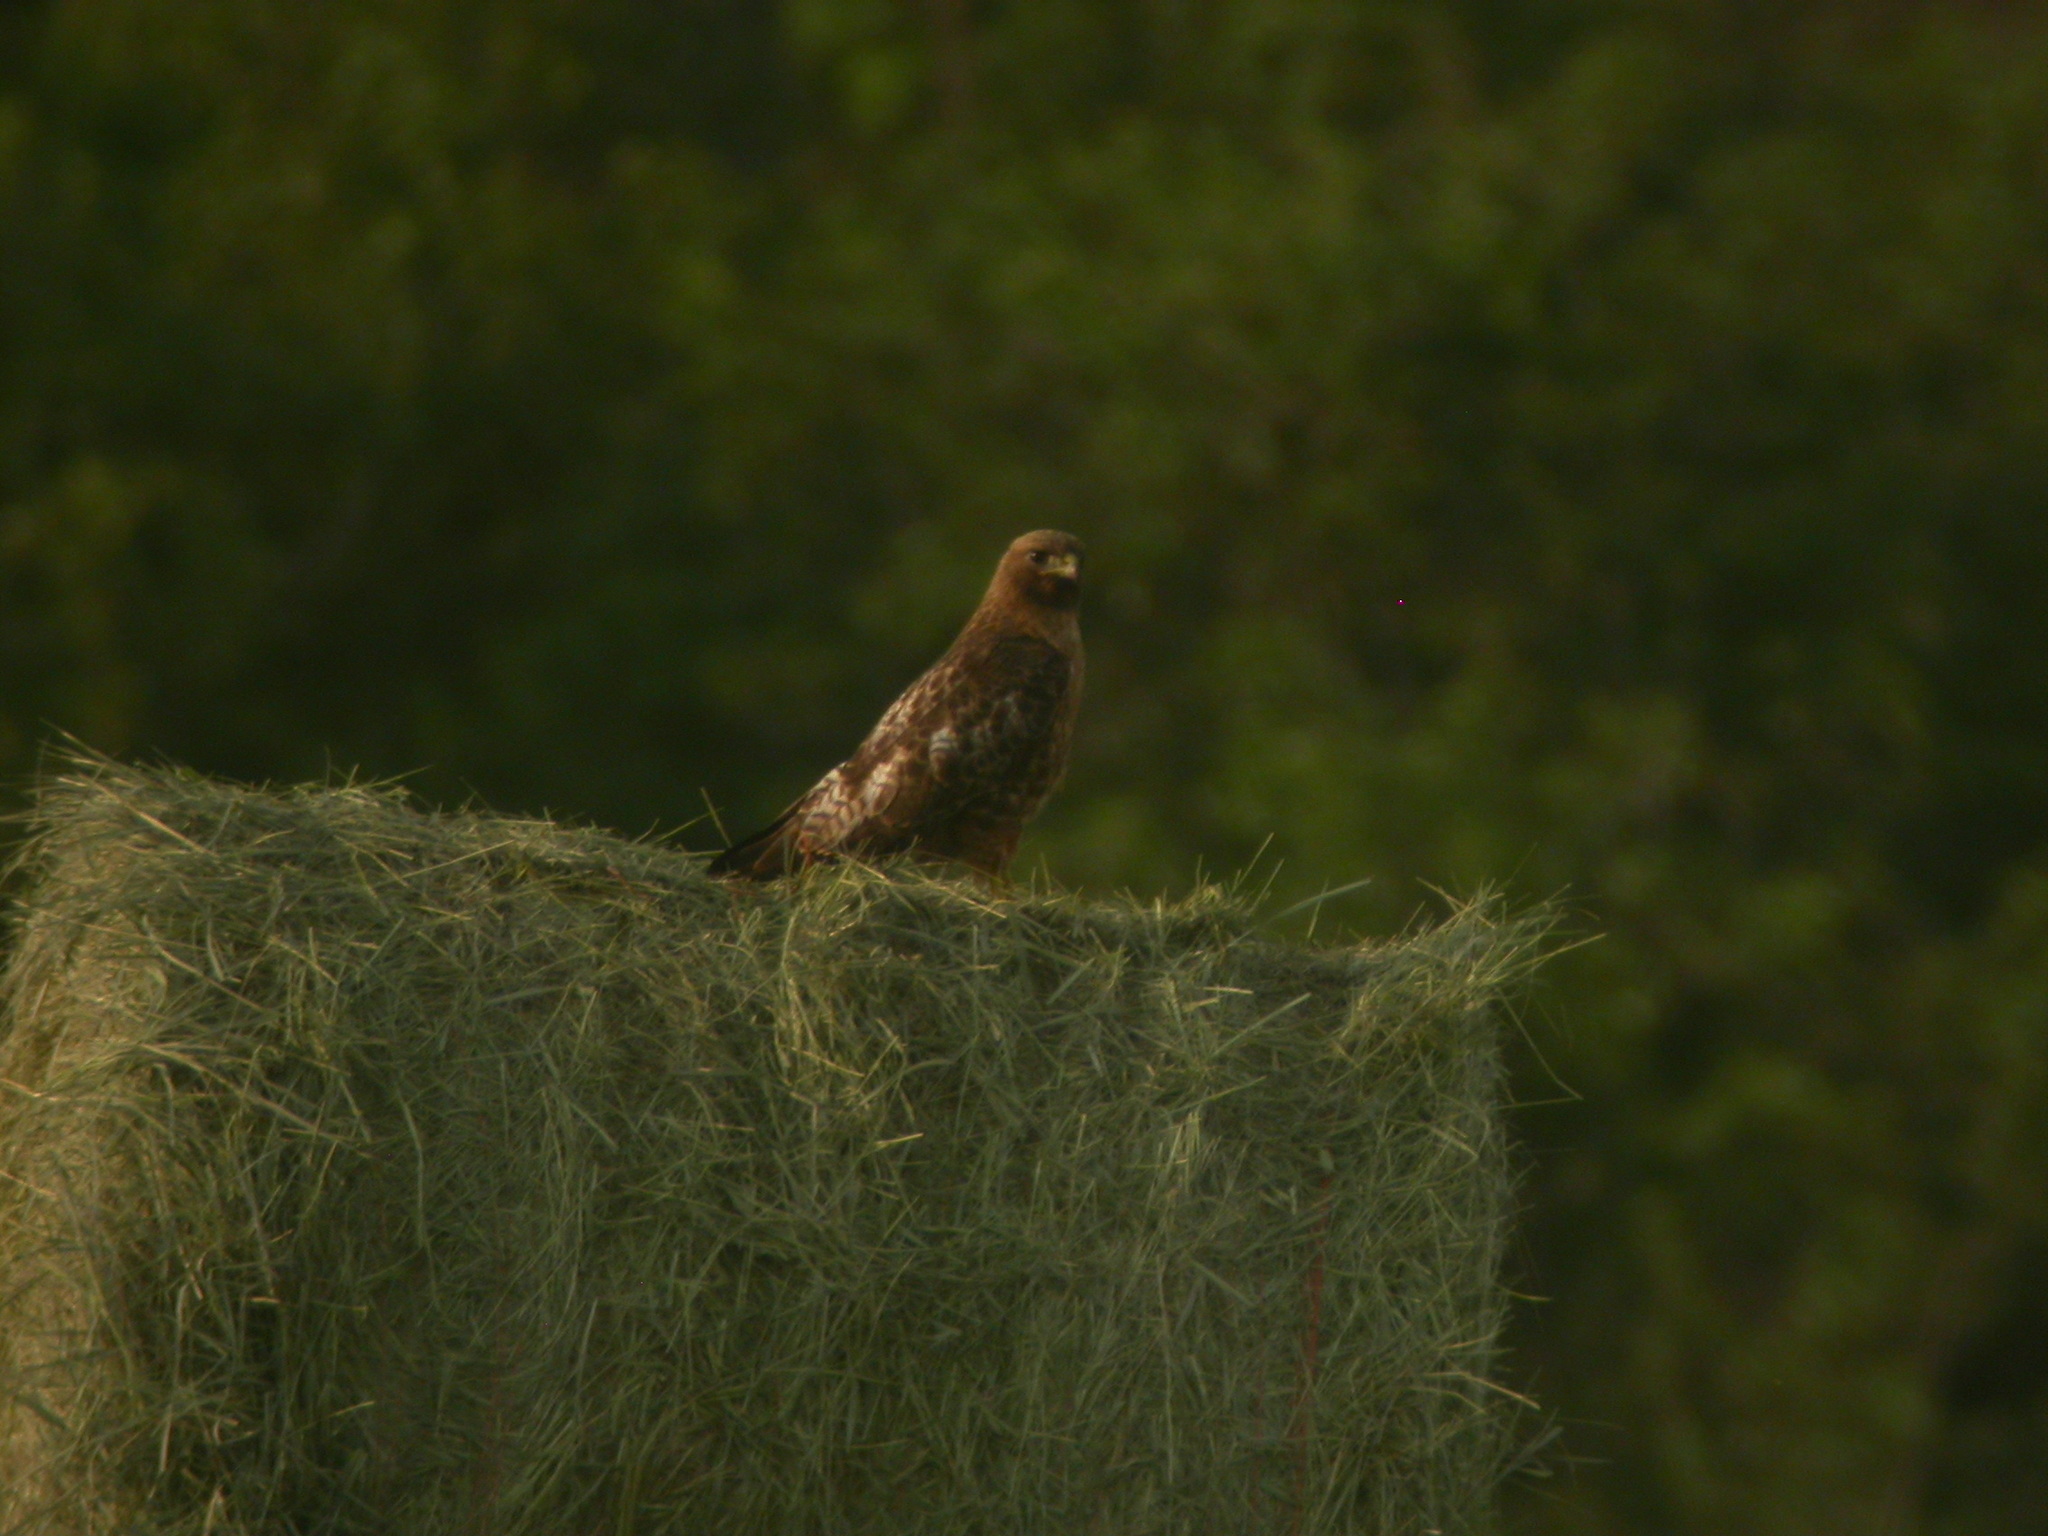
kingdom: Animalia
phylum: Chordata
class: Aves
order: Accipitriformes
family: Accipitridae
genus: Buteo
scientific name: Buteo jamaicensis
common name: Red-tailed hawk
